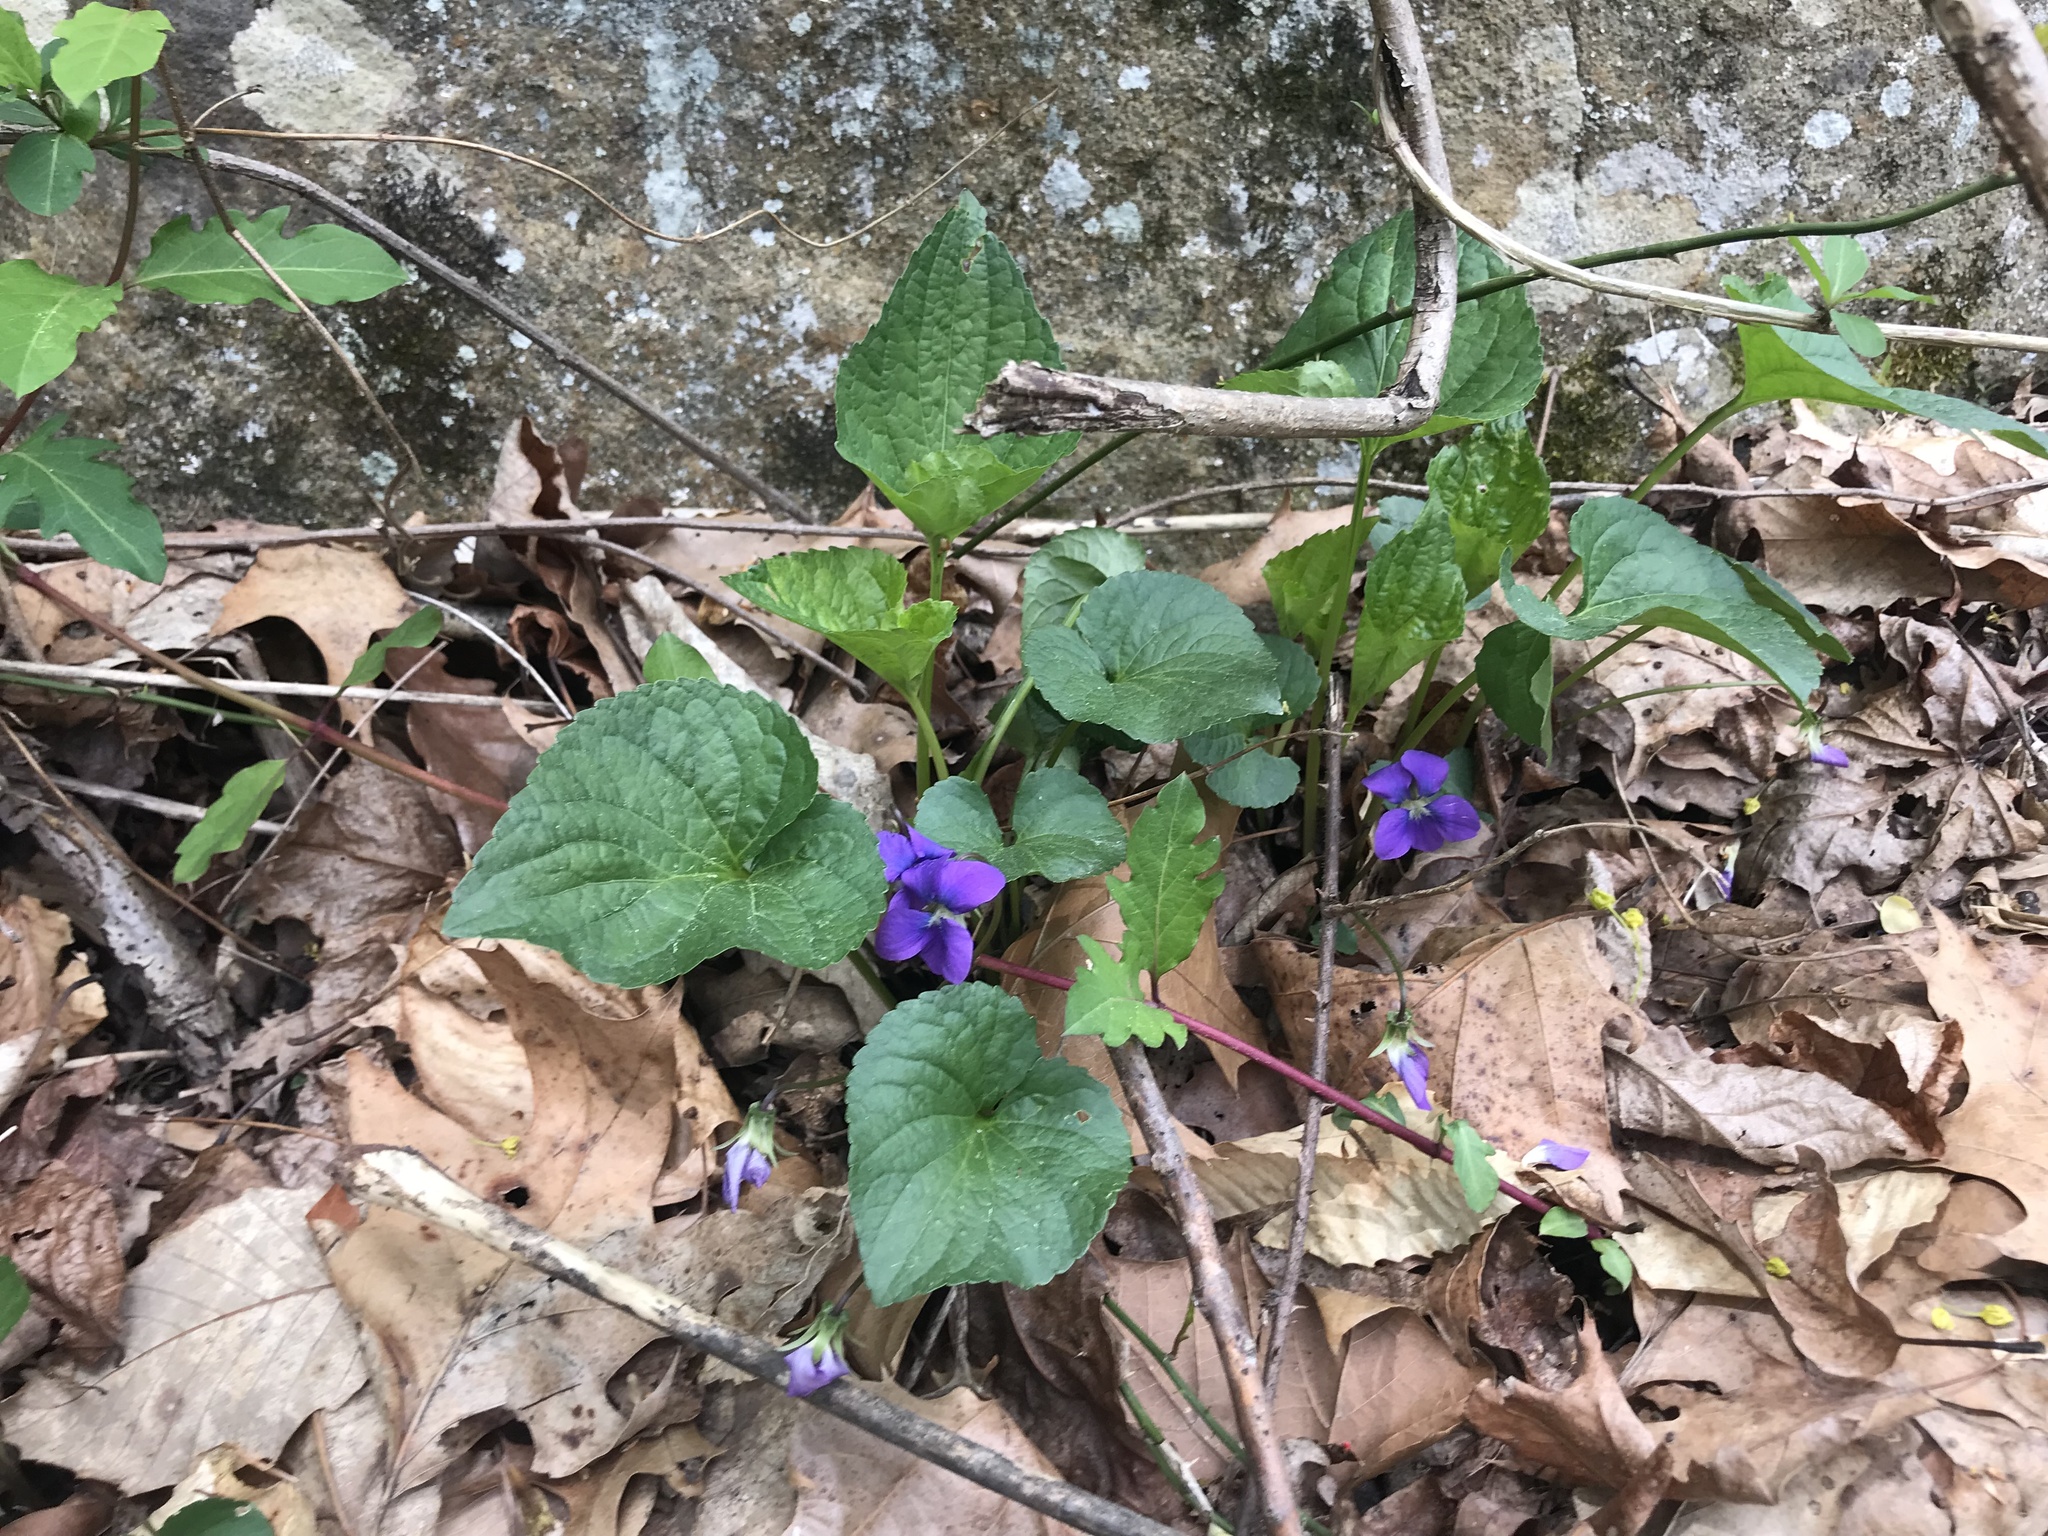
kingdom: Plantae
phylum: Tracheophyta
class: Magnoliopsida
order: Malpighiales
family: Violaceae
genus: Viola
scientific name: Viola sororia
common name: Dooryard violet
